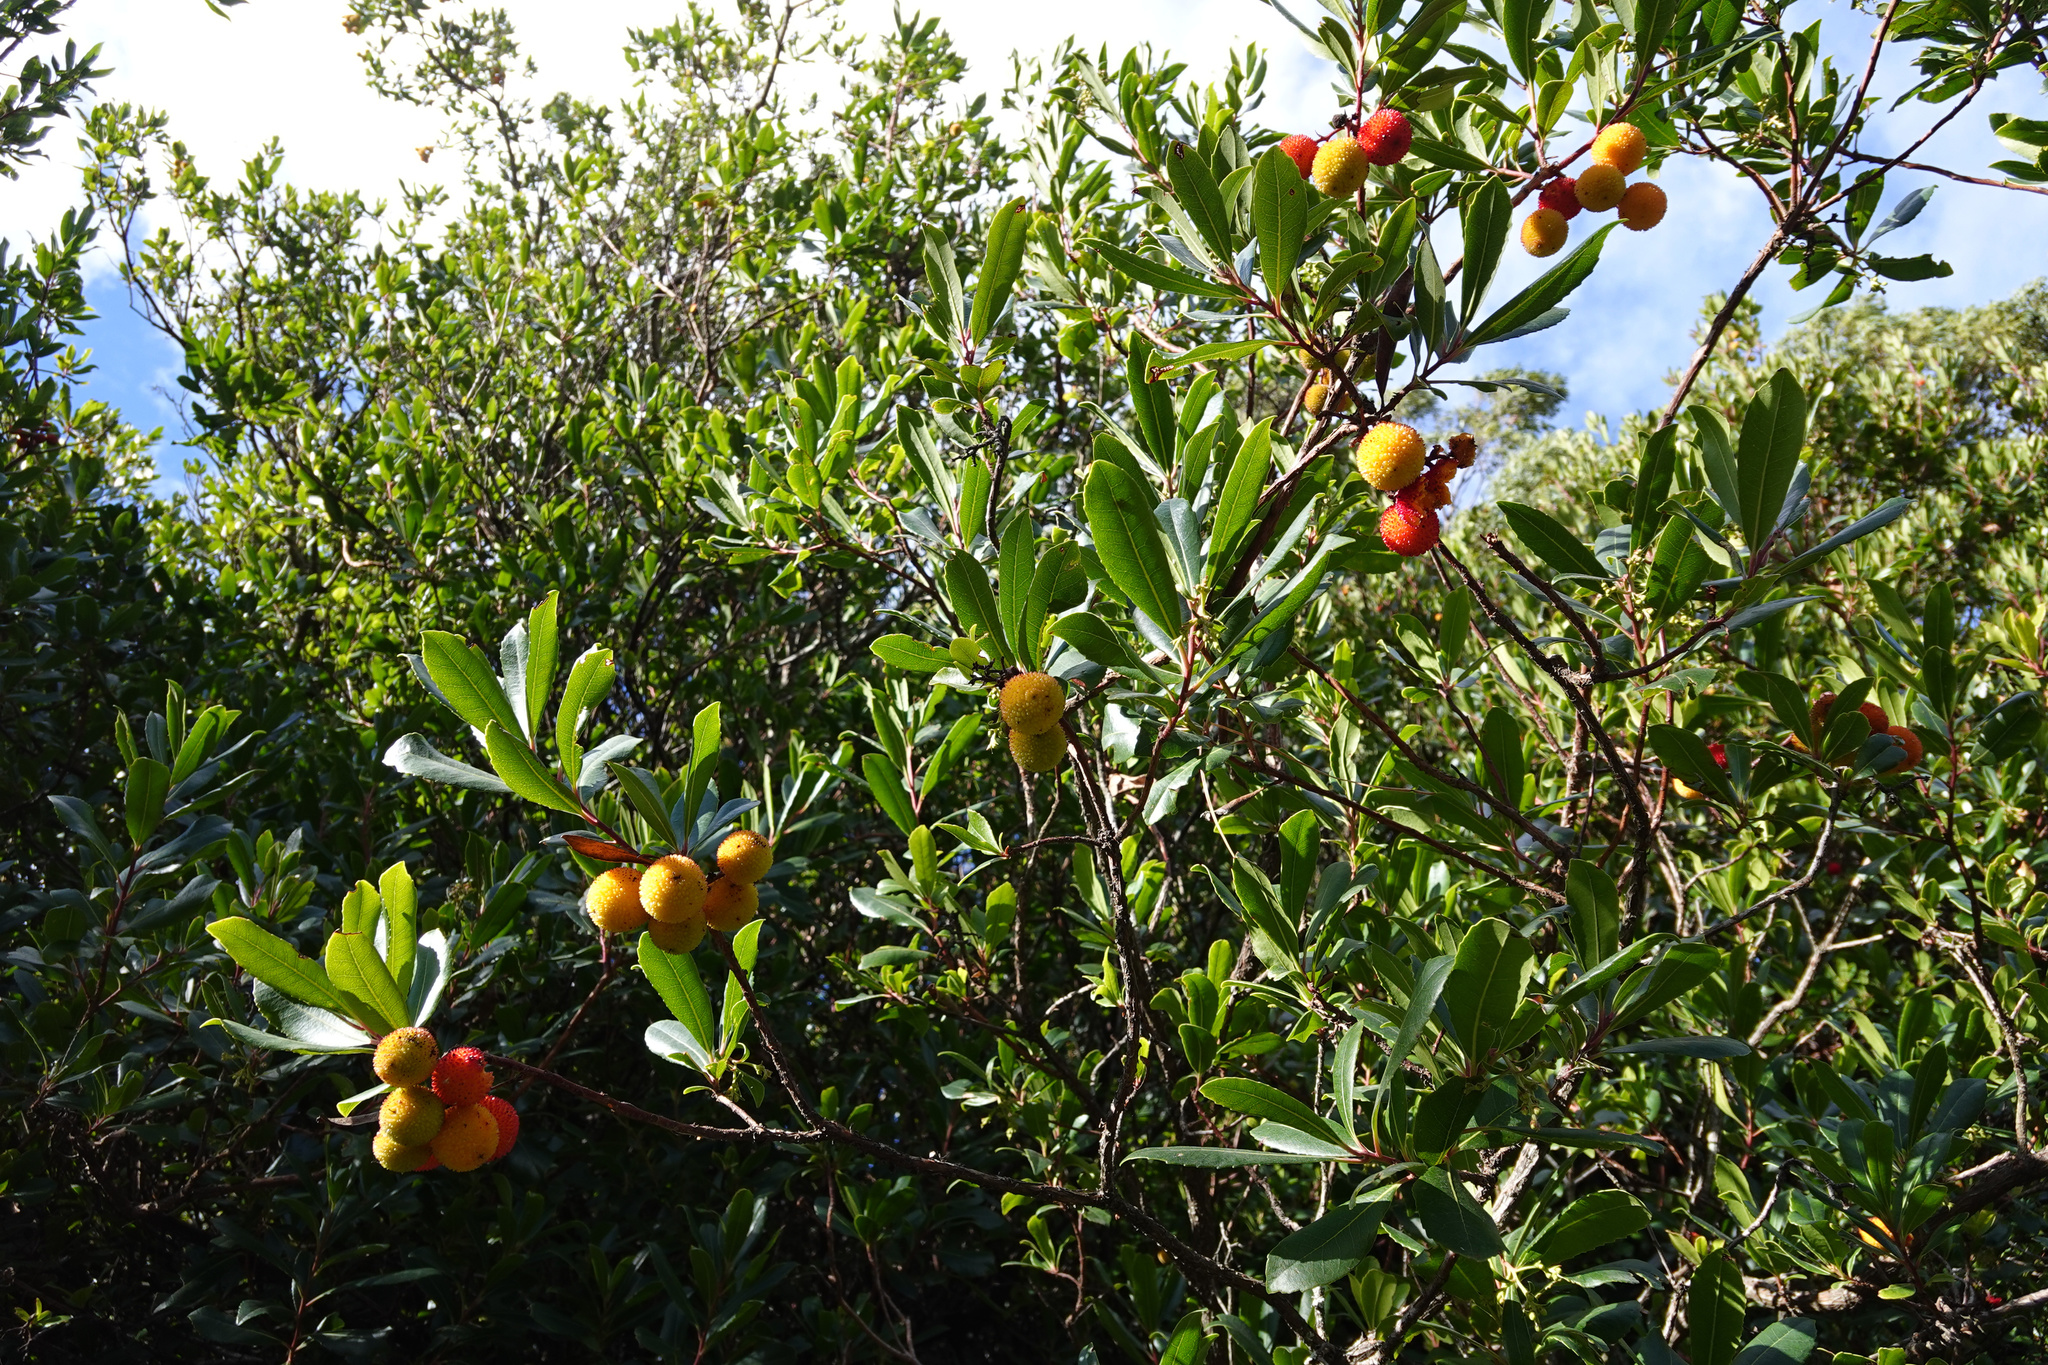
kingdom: Plantae
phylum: Tracheophyta
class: Magnoliopsida
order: Ericales
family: Ericaceae
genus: Arbutus
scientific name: Arbutus unedo
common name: Strawberry-tree
